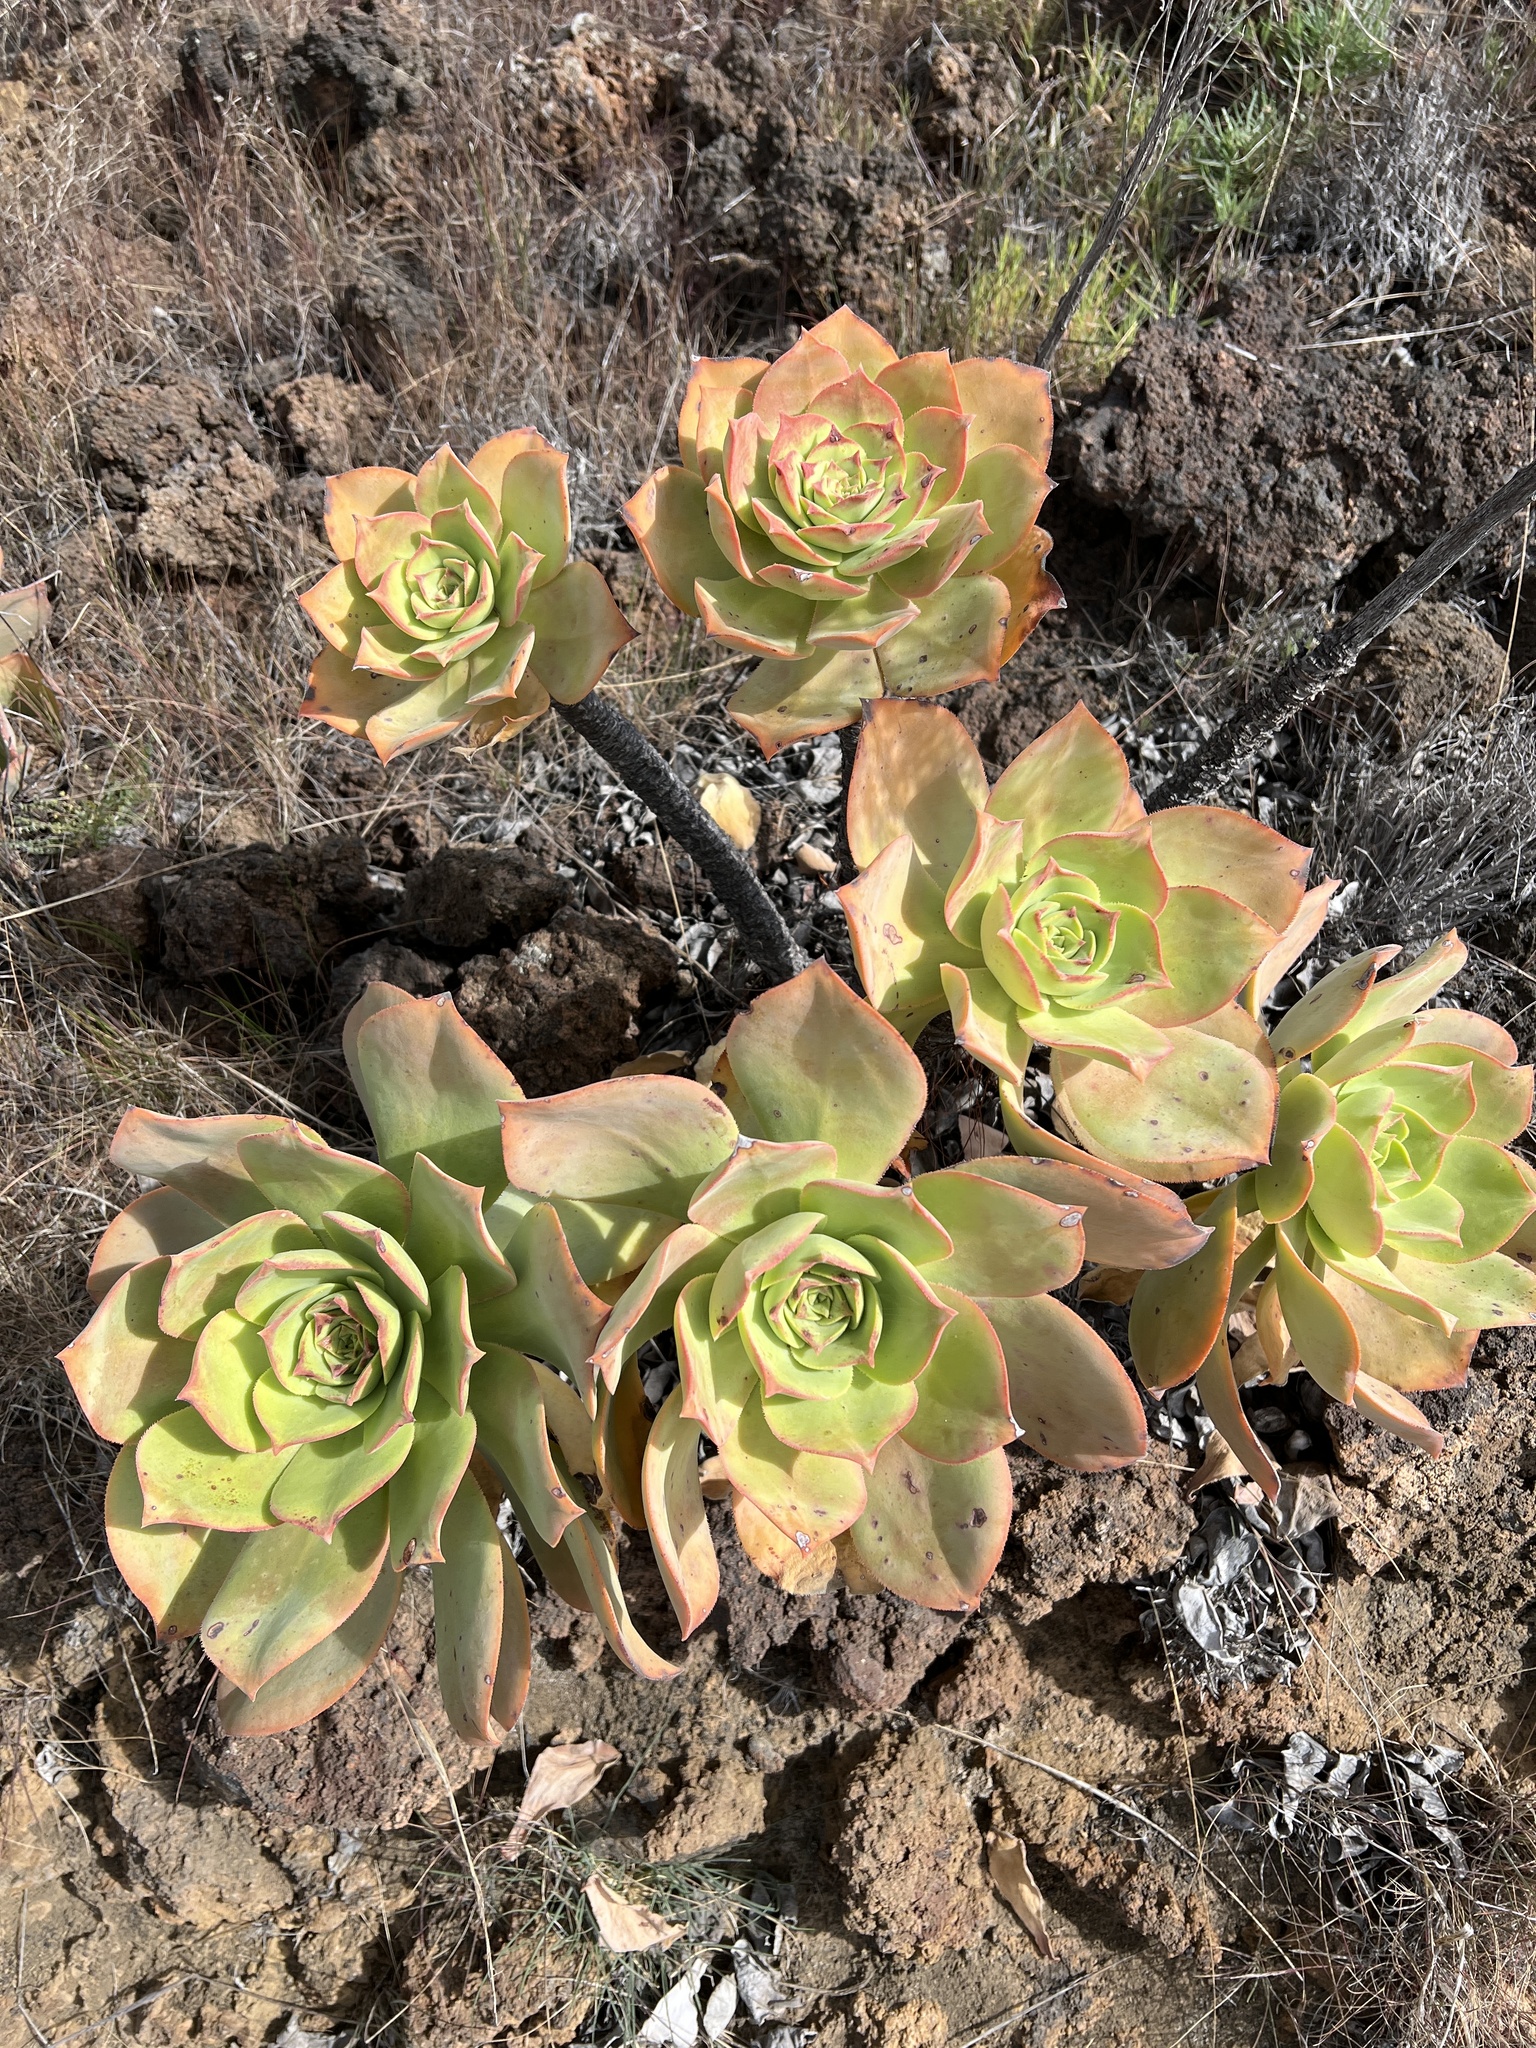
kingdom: Plantae
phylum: Tracheophyta
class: Magnoliopsida
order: Saxifragales
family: Crassulaceae
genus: Aeonium
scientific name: Aeonium valverdense
